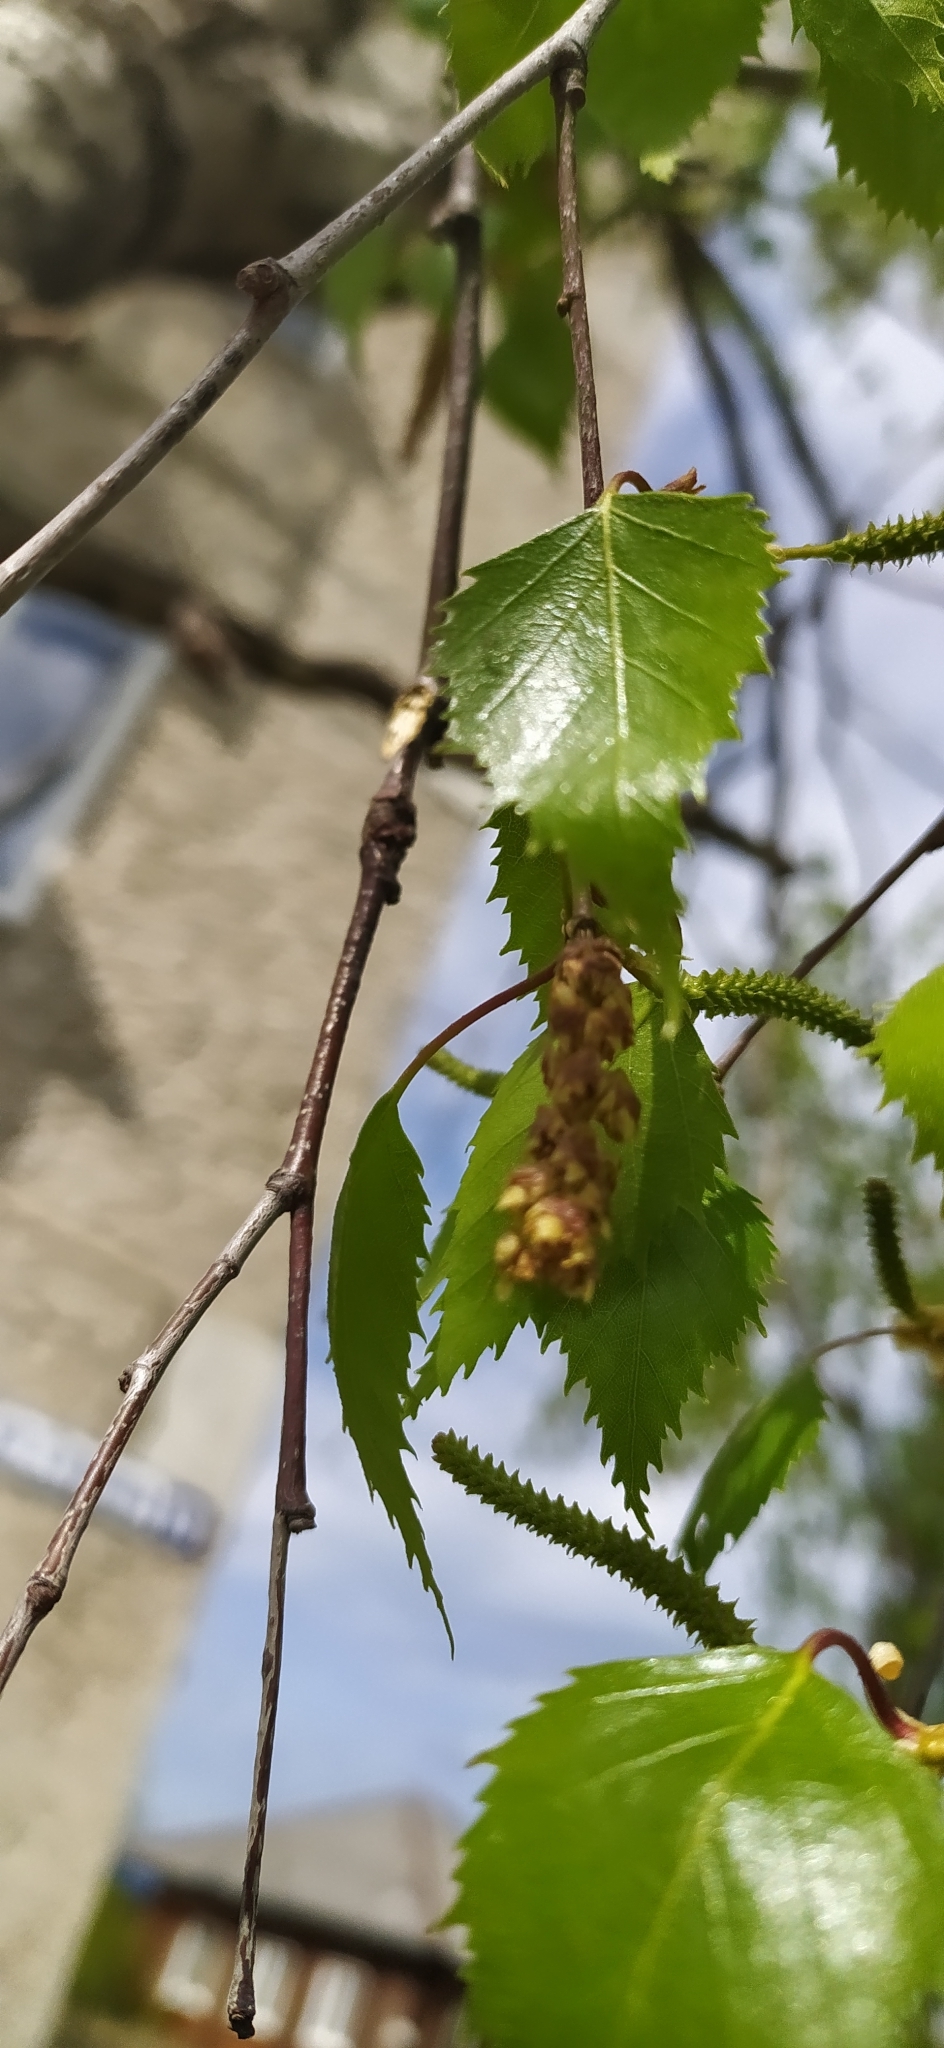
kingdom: Plantae
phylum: Tracheophyta
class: Magnoliopsida
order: Fagales
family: Betulaceae
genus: Betula
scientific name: Betula pendula
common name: Silver birch
